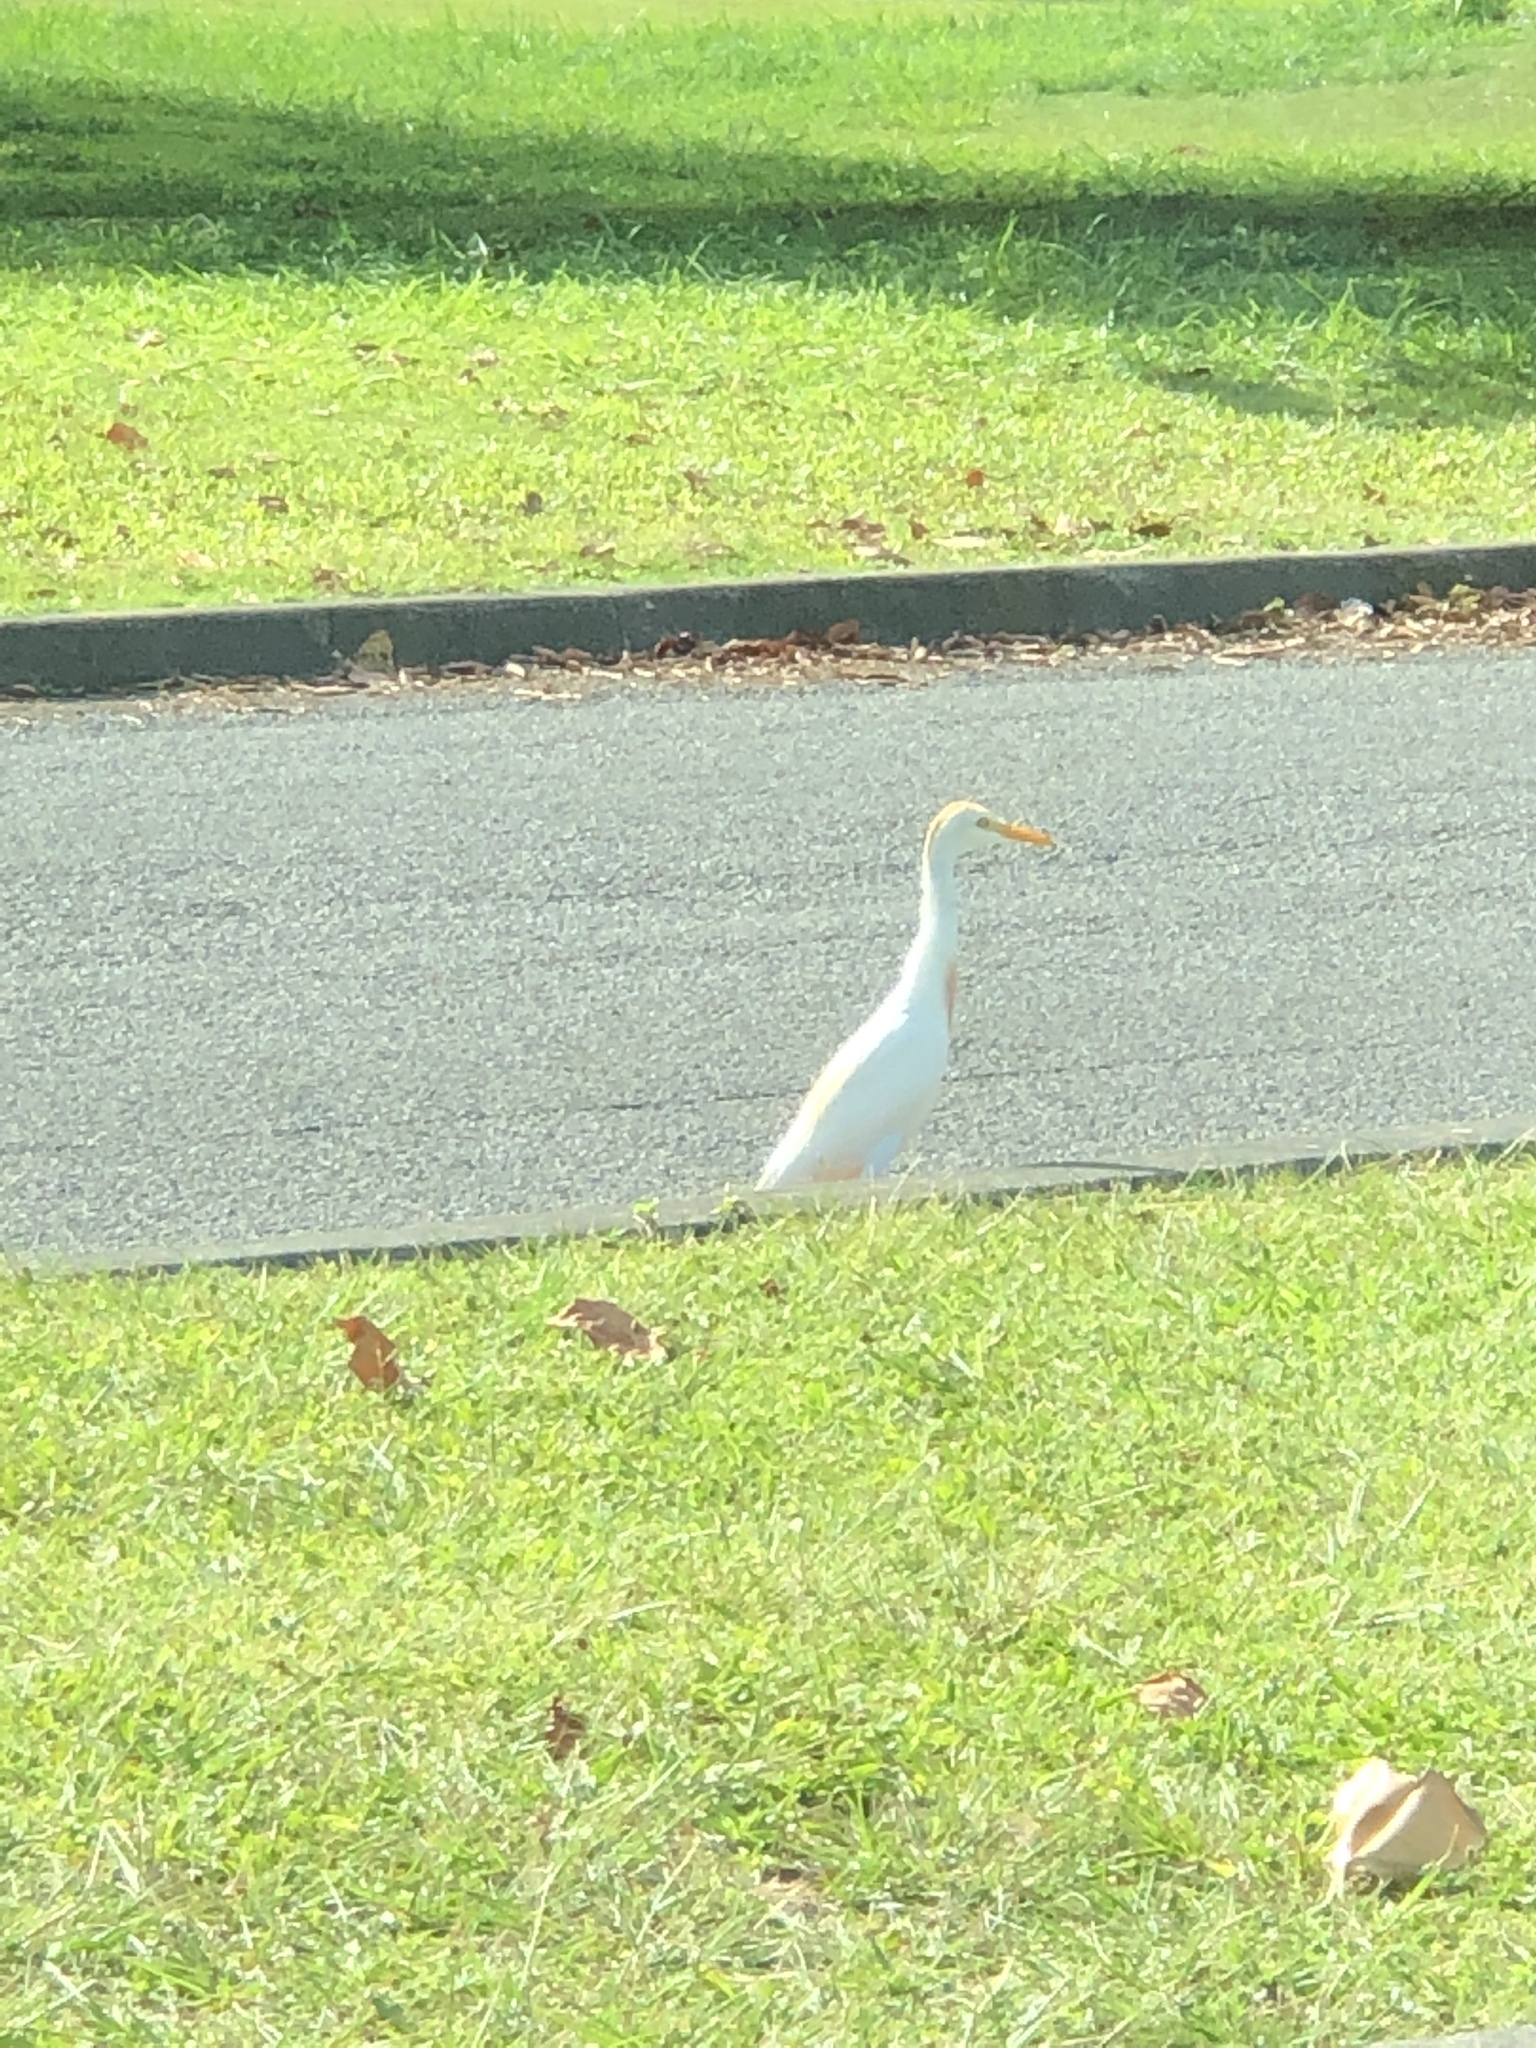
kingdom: Animalia
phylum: Chordata
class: Aves
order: Pelecaniformes
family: Ardeidae
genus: Bubulcus
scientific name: Bubulcus ibis
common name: Cattle egret
